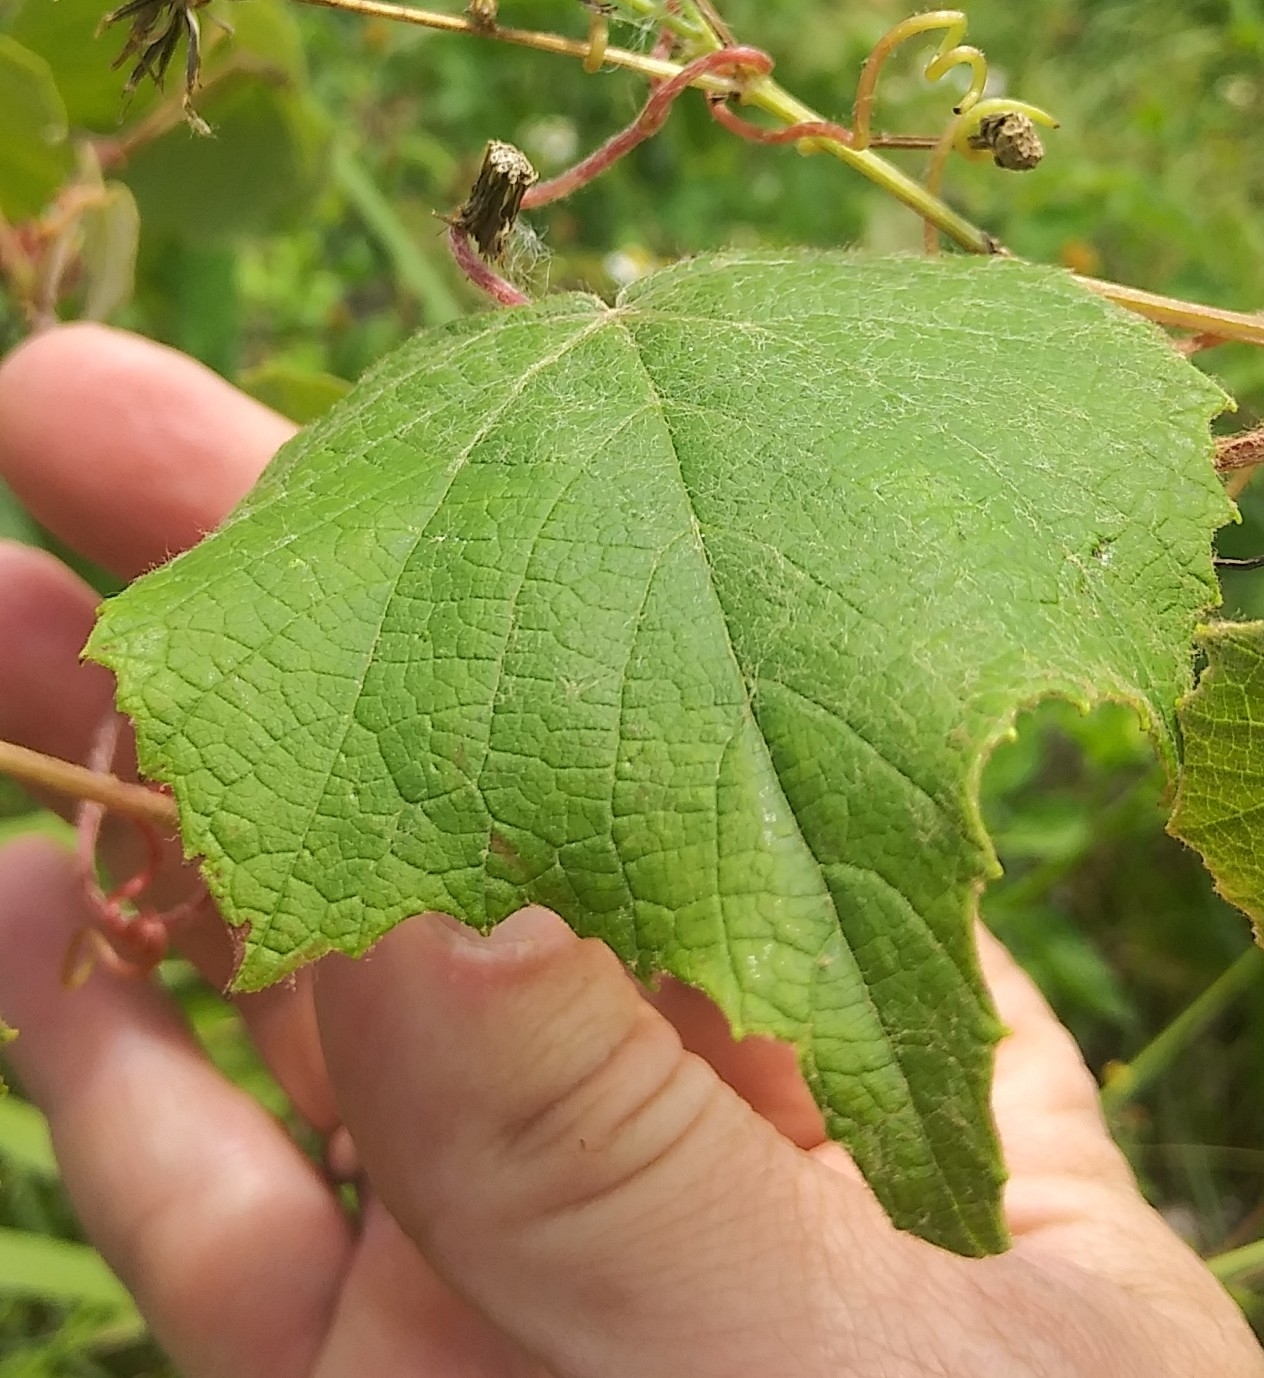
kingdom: Plantae
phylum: Tracheophyta
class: Magnoliopsida
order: Vitales
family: Vitaceae
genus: Vitis
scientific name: Vitis cinerea
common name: Ashy grape
